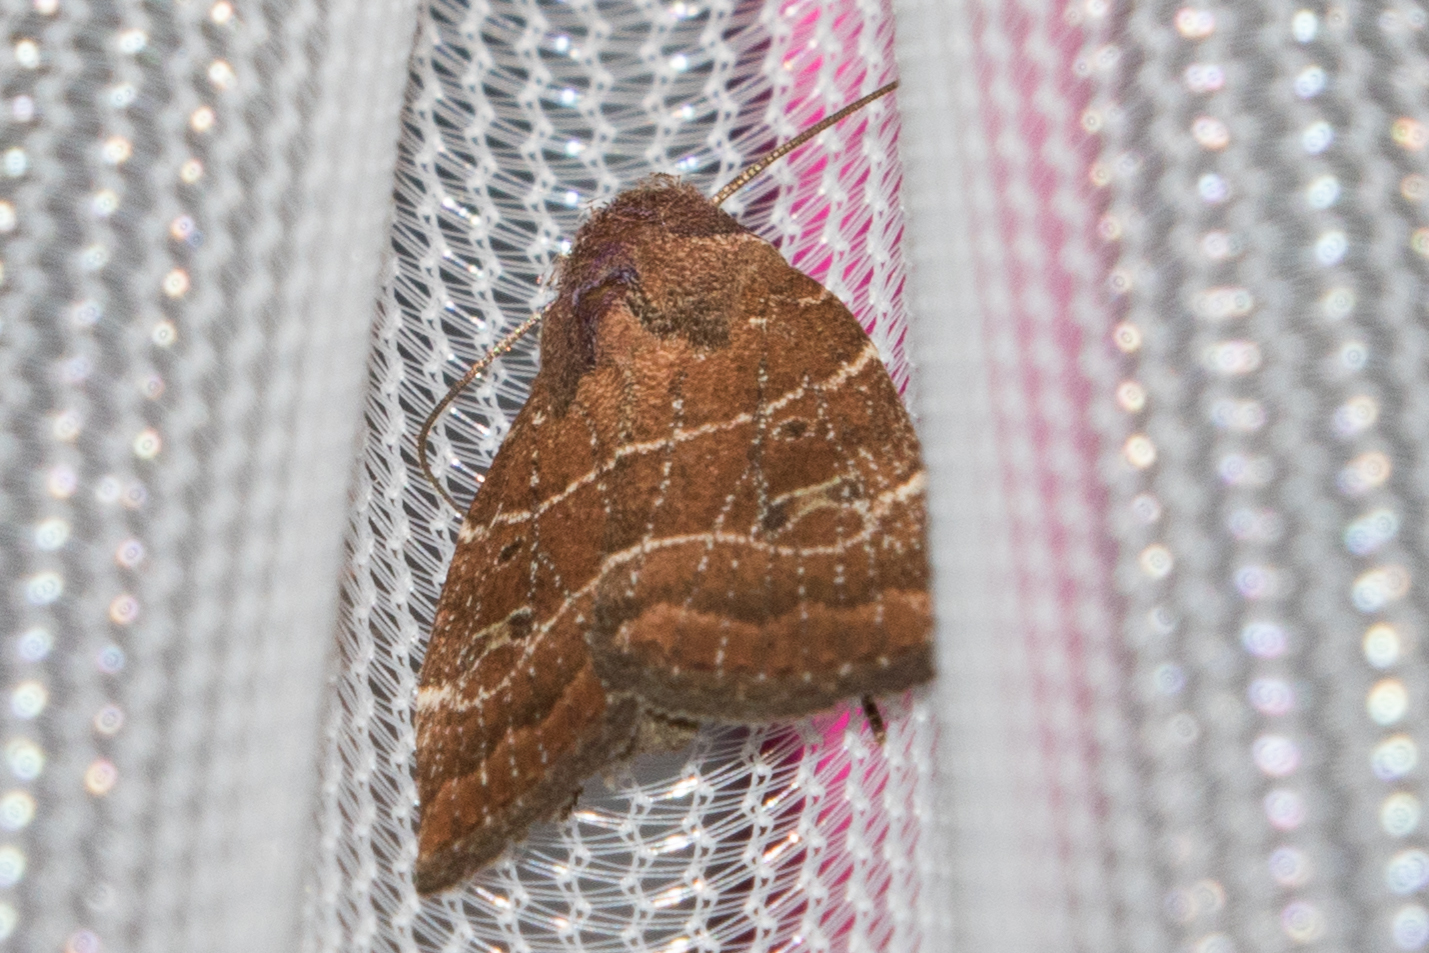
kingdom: Animalia
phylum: Arthropoda
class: Insecta
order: Lepidoptera
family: Noctuidae
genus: Elaphria
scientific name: Elaphria grata
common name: Grateful midget moth
